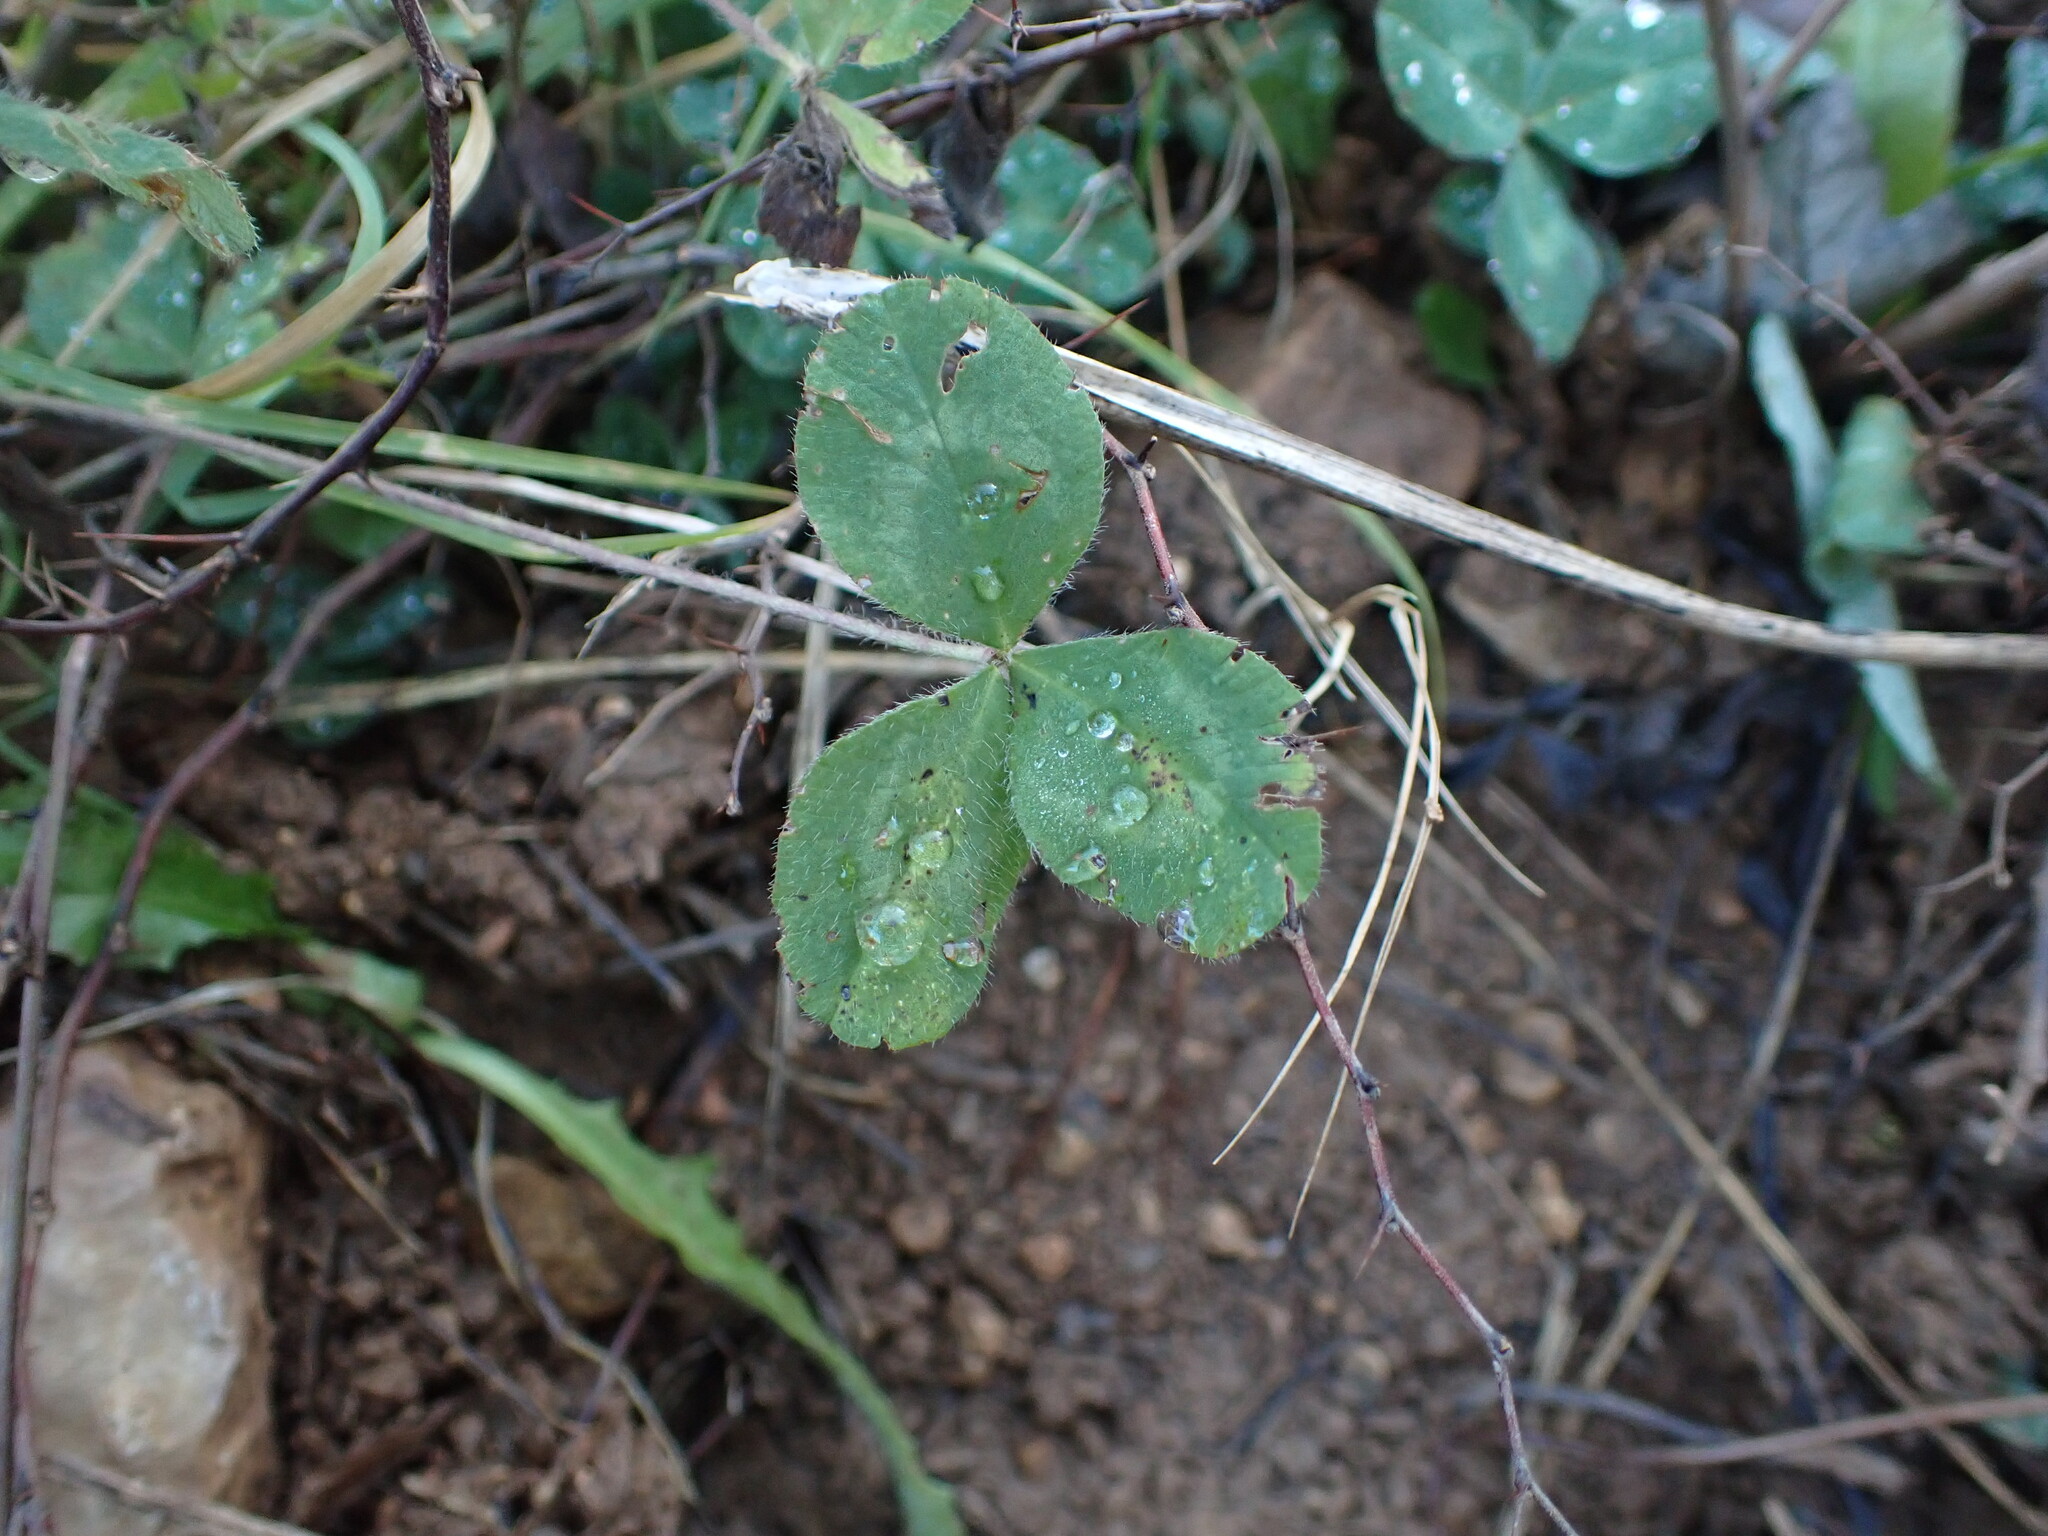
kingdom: Plantae
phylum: Tracheophyta
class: Magnoliopsida
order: Fabales
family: Fabaceae
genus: Trifolium
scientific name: Trifolium pratense
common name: Red clover
